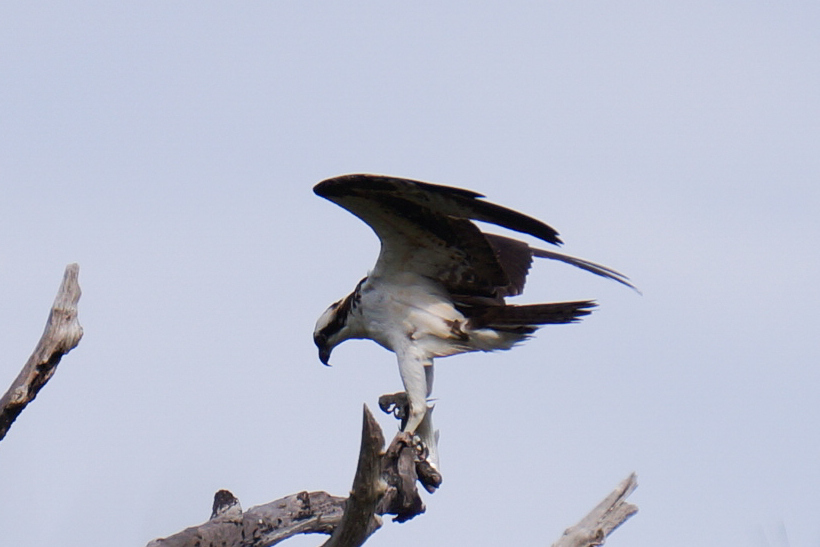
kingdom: Animalia
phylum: Chordata
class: Aves
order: Accipitriformes
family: Pandionidae
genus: Pandion
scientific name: Pandion haliaetus
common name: Osprey
